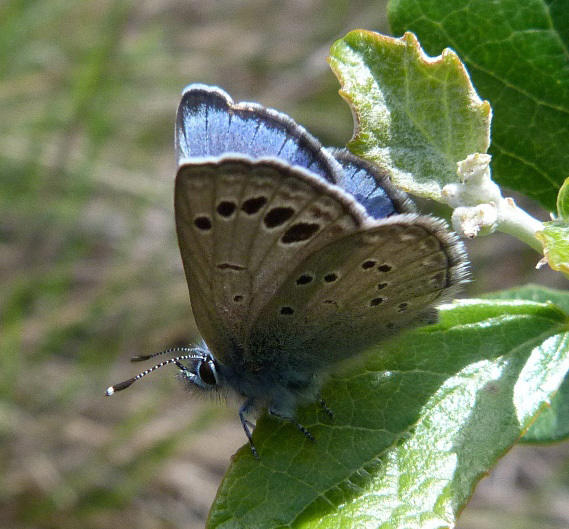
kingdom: Animalia
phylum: Arthropoda
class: Insecta
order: Lepidoptera
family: Lycaenidae
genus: Glaucopsyche
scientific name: Glaucopsyche melanops
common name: Black-eyed blue
